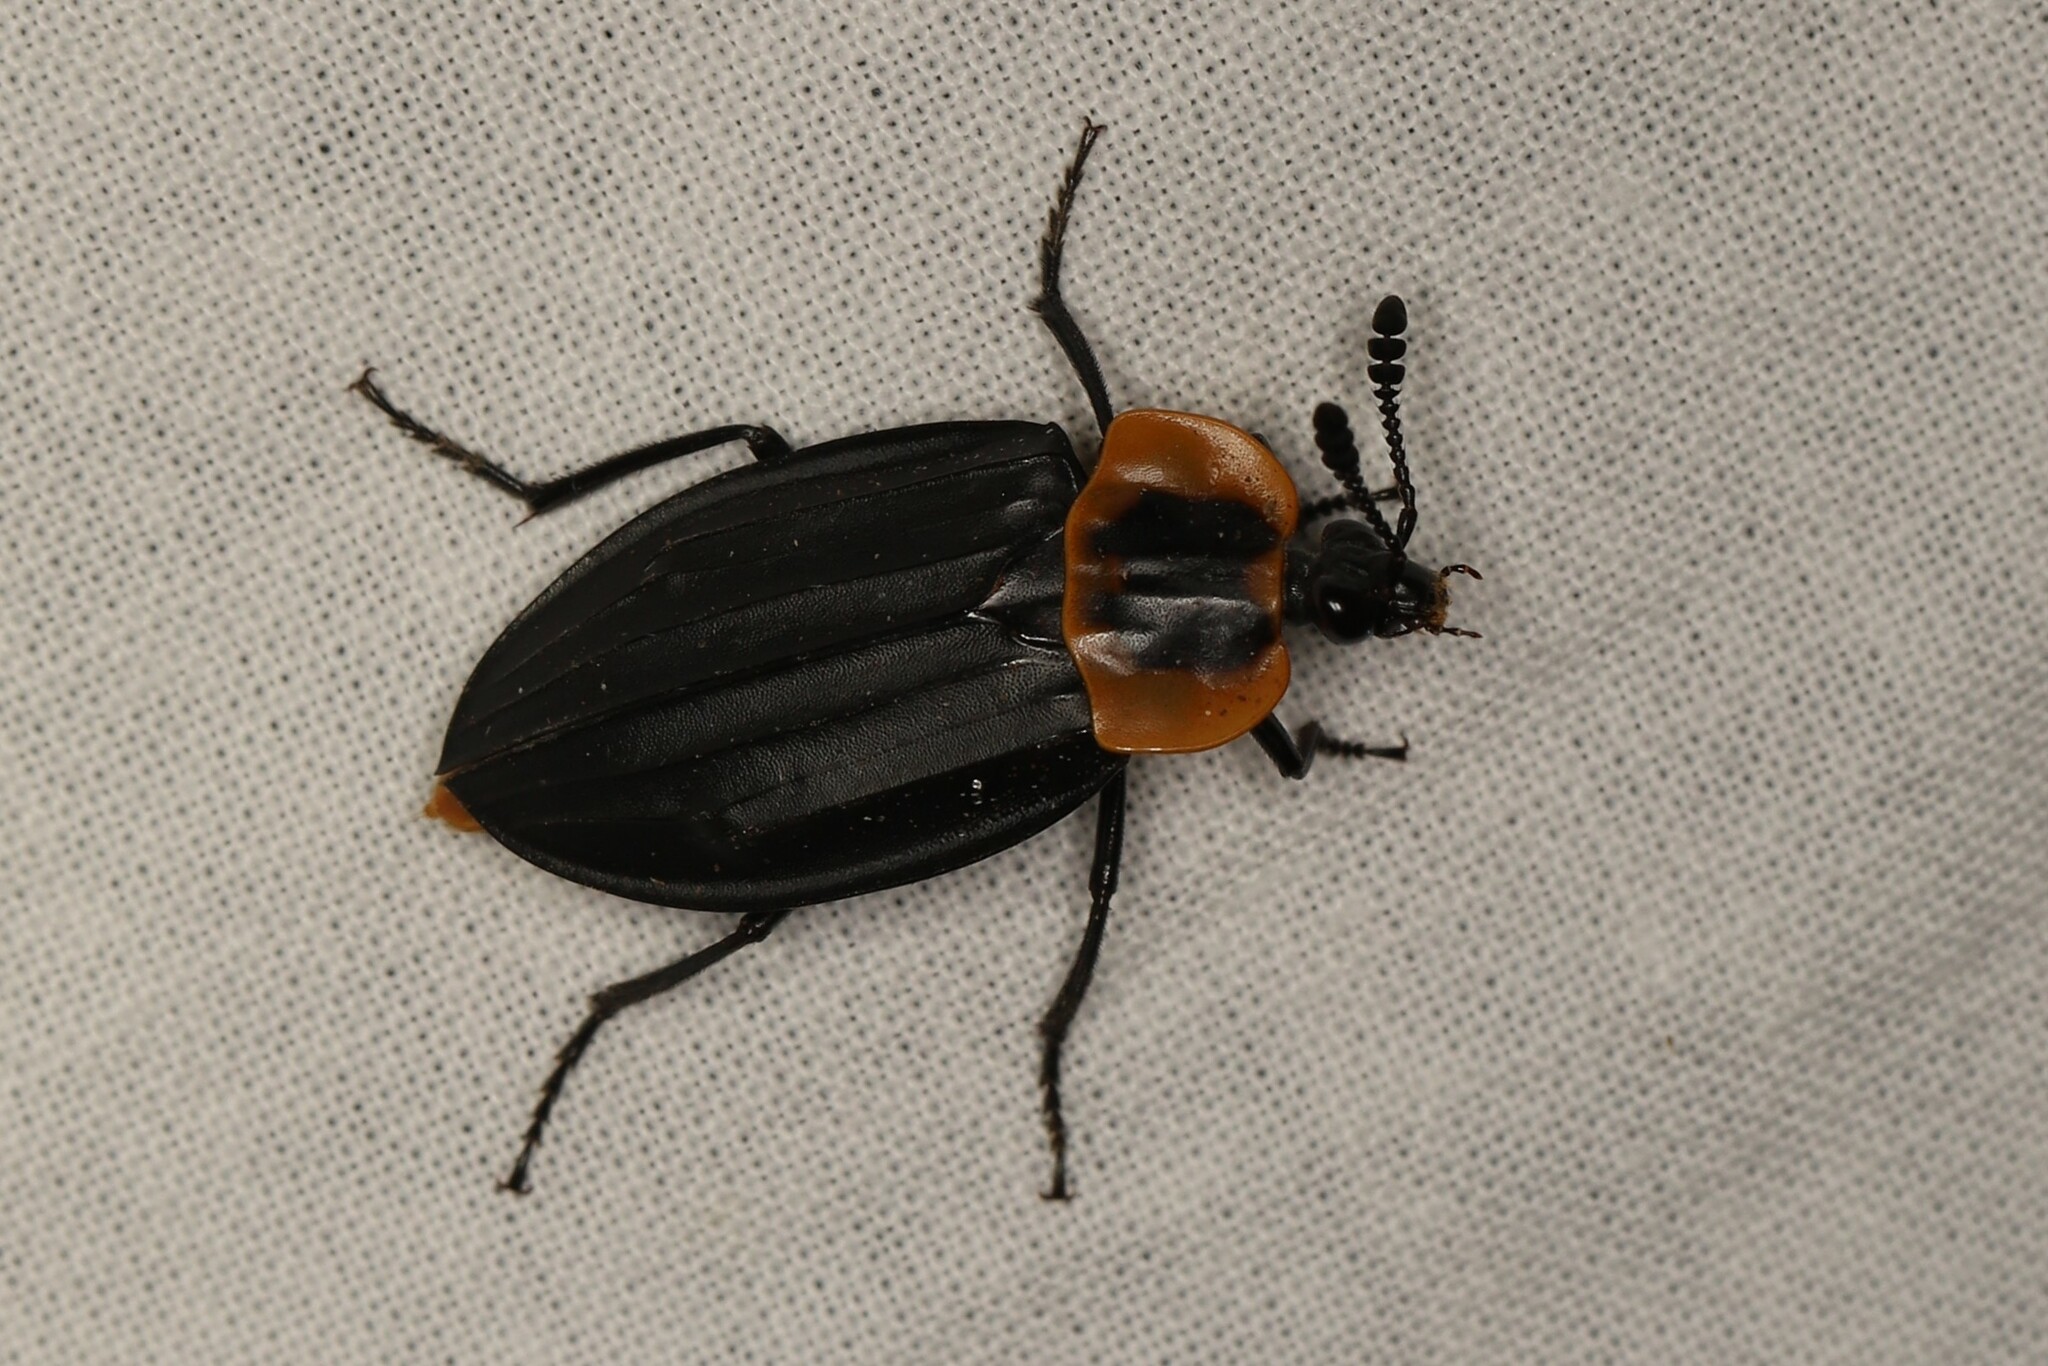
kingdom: Animalia
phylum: Arthropoda
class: Insecta
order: Coleoptera
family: Staphylinidae
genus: Oxelytrum
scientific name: Oxelytrum discicolle
